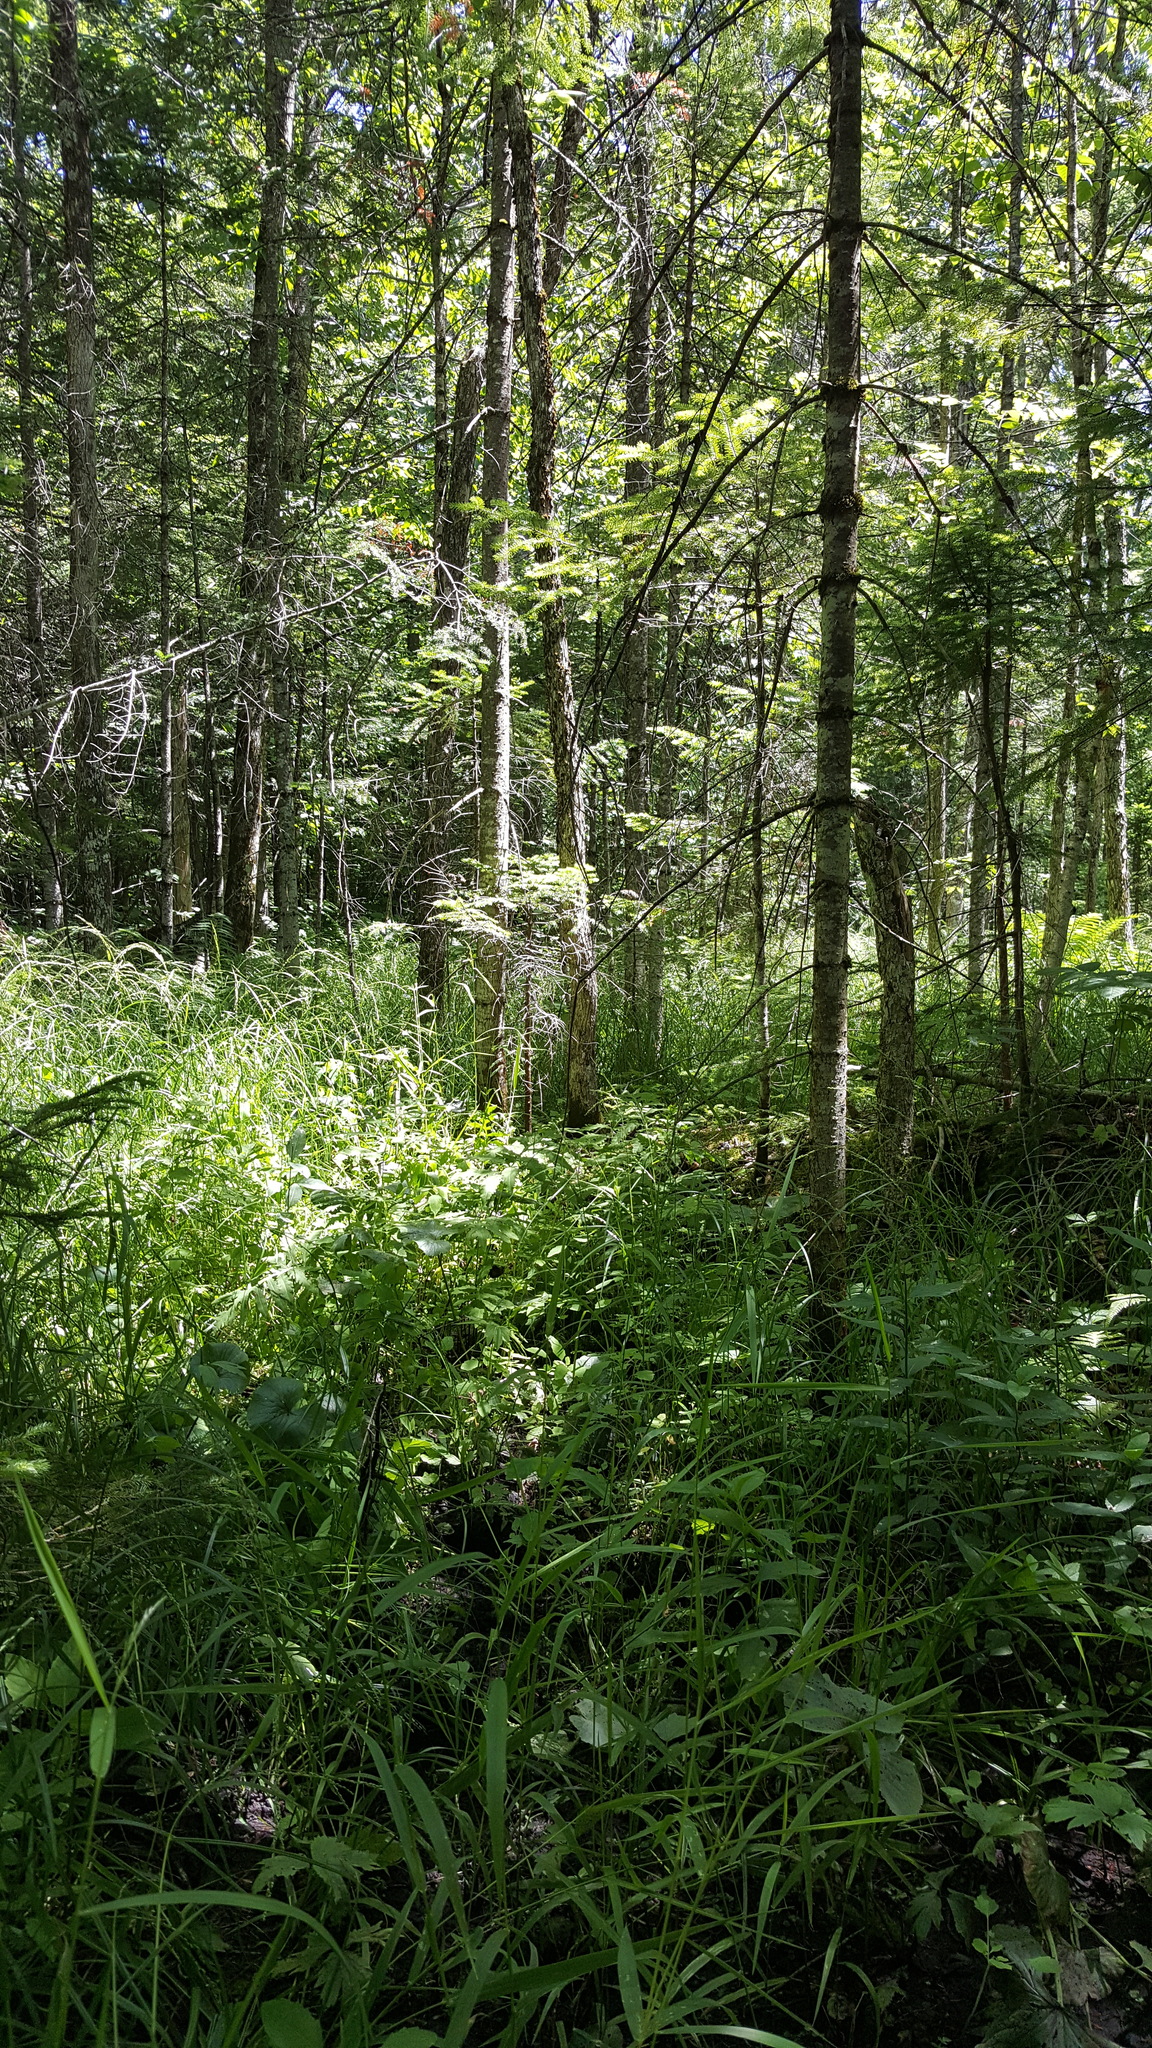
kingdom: Plantae
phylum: Tracheophyta
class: Pinopsida
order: Pinales
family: Pinaceae
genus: Abies
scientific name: Abies balsamea
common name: Balsam fir
